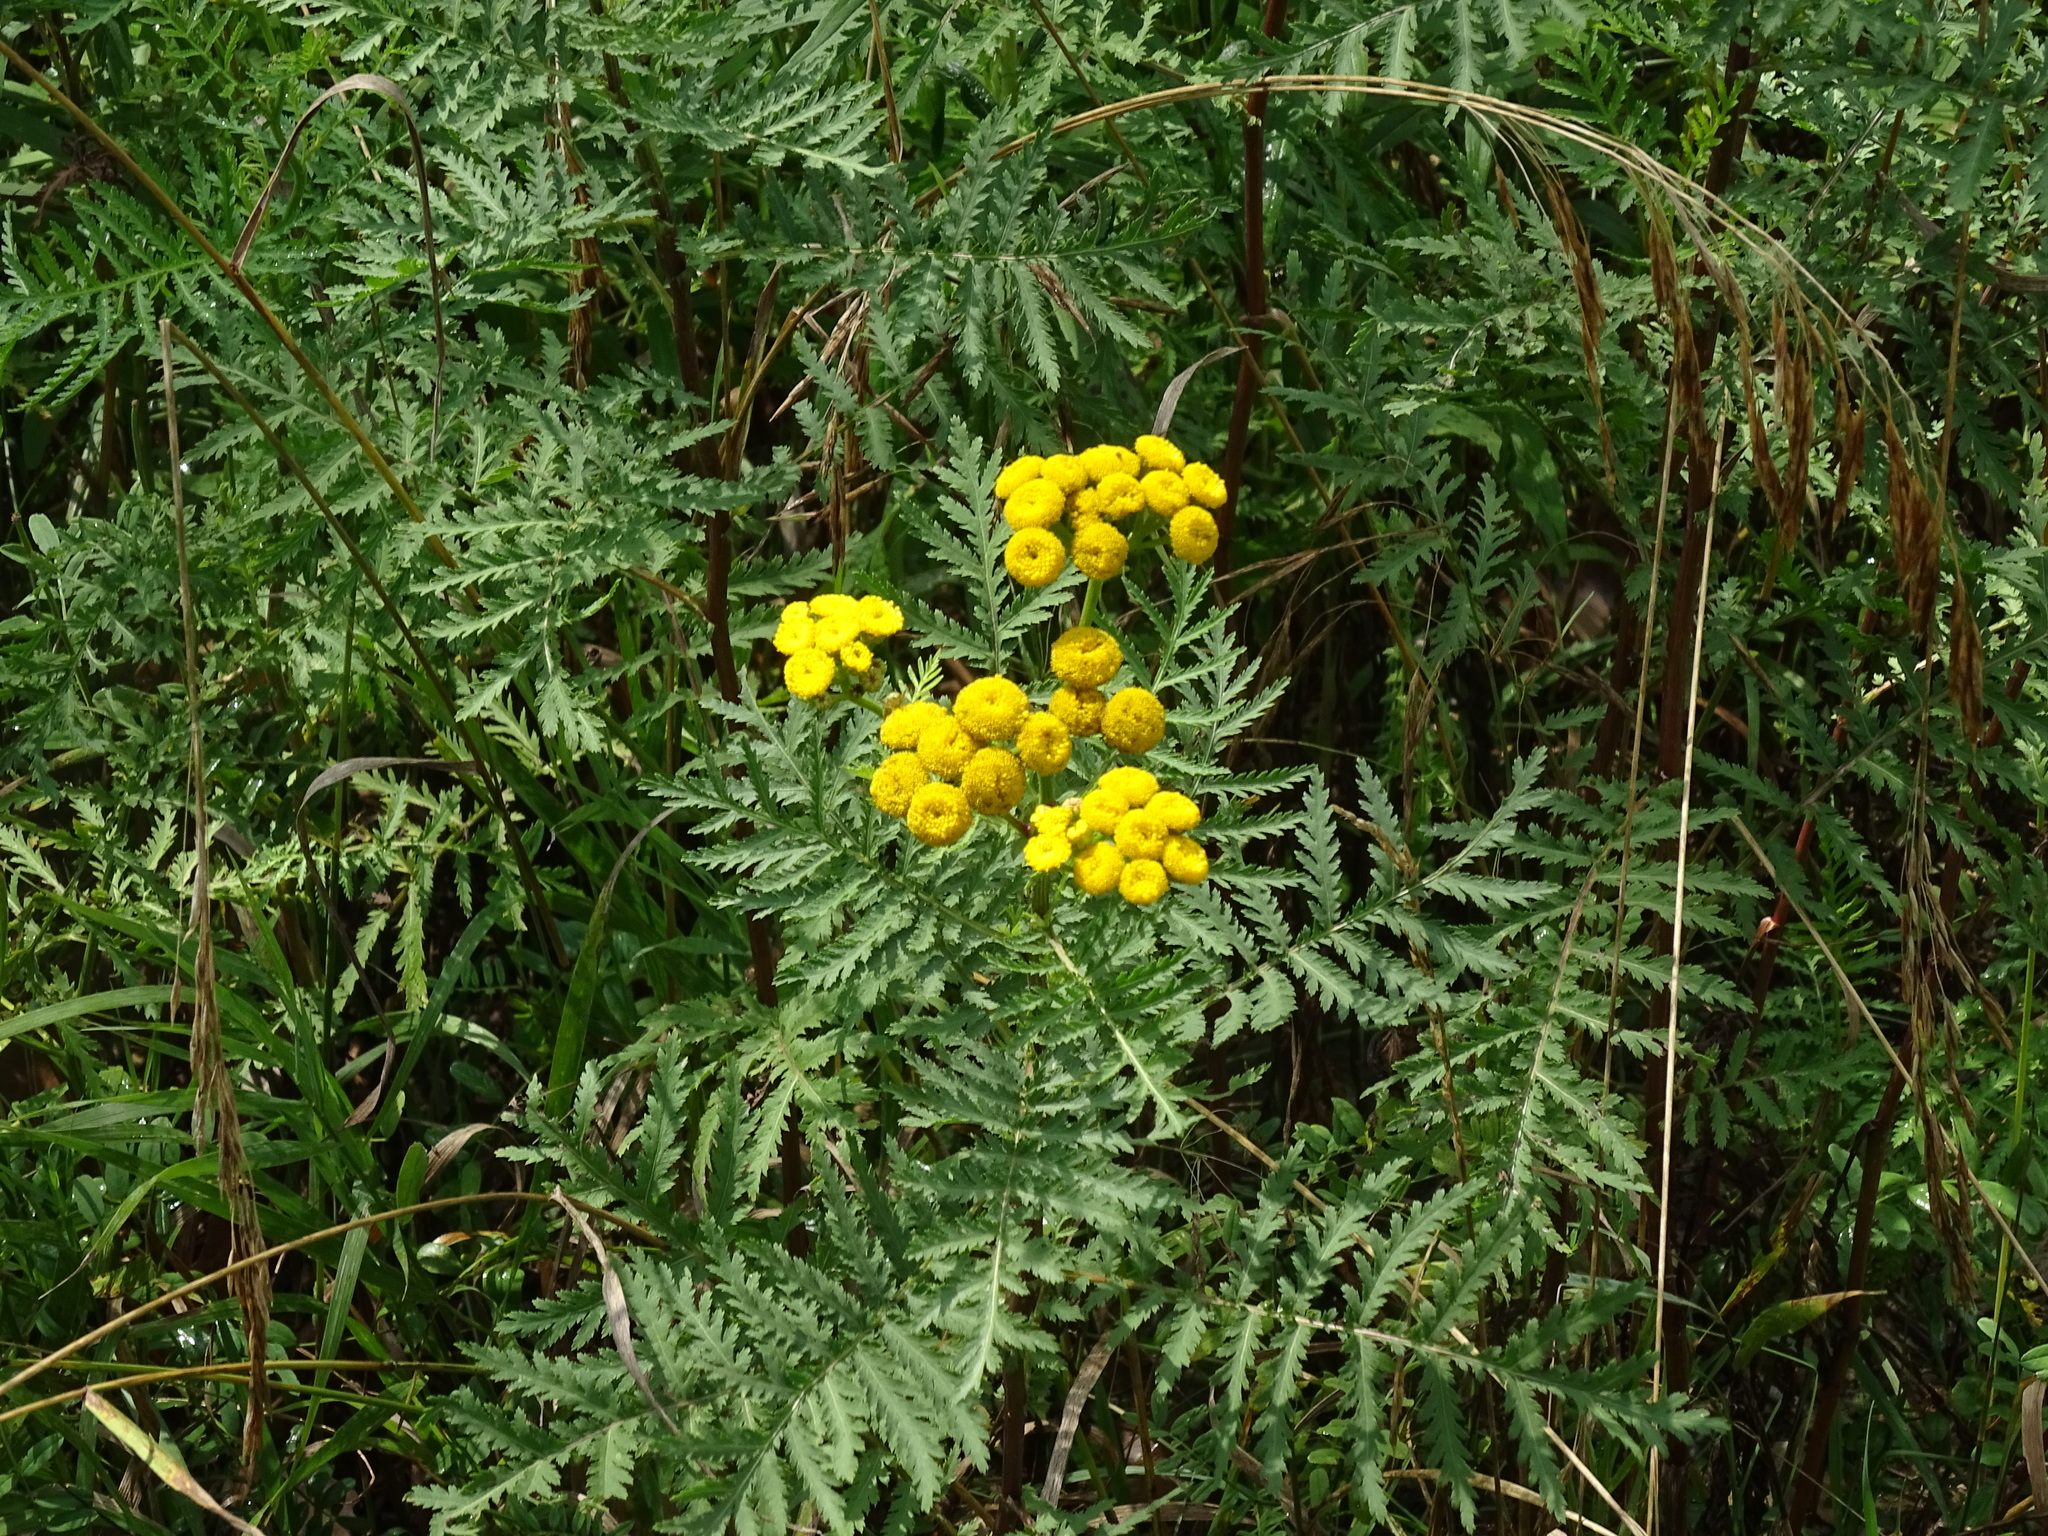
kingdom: Plantae
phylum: Tracheophyta
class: Magnoliopsida
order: Asterales
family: Asteraceae
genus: Tanacetum
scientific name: Tanacetum vulgare
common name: Common tansy
